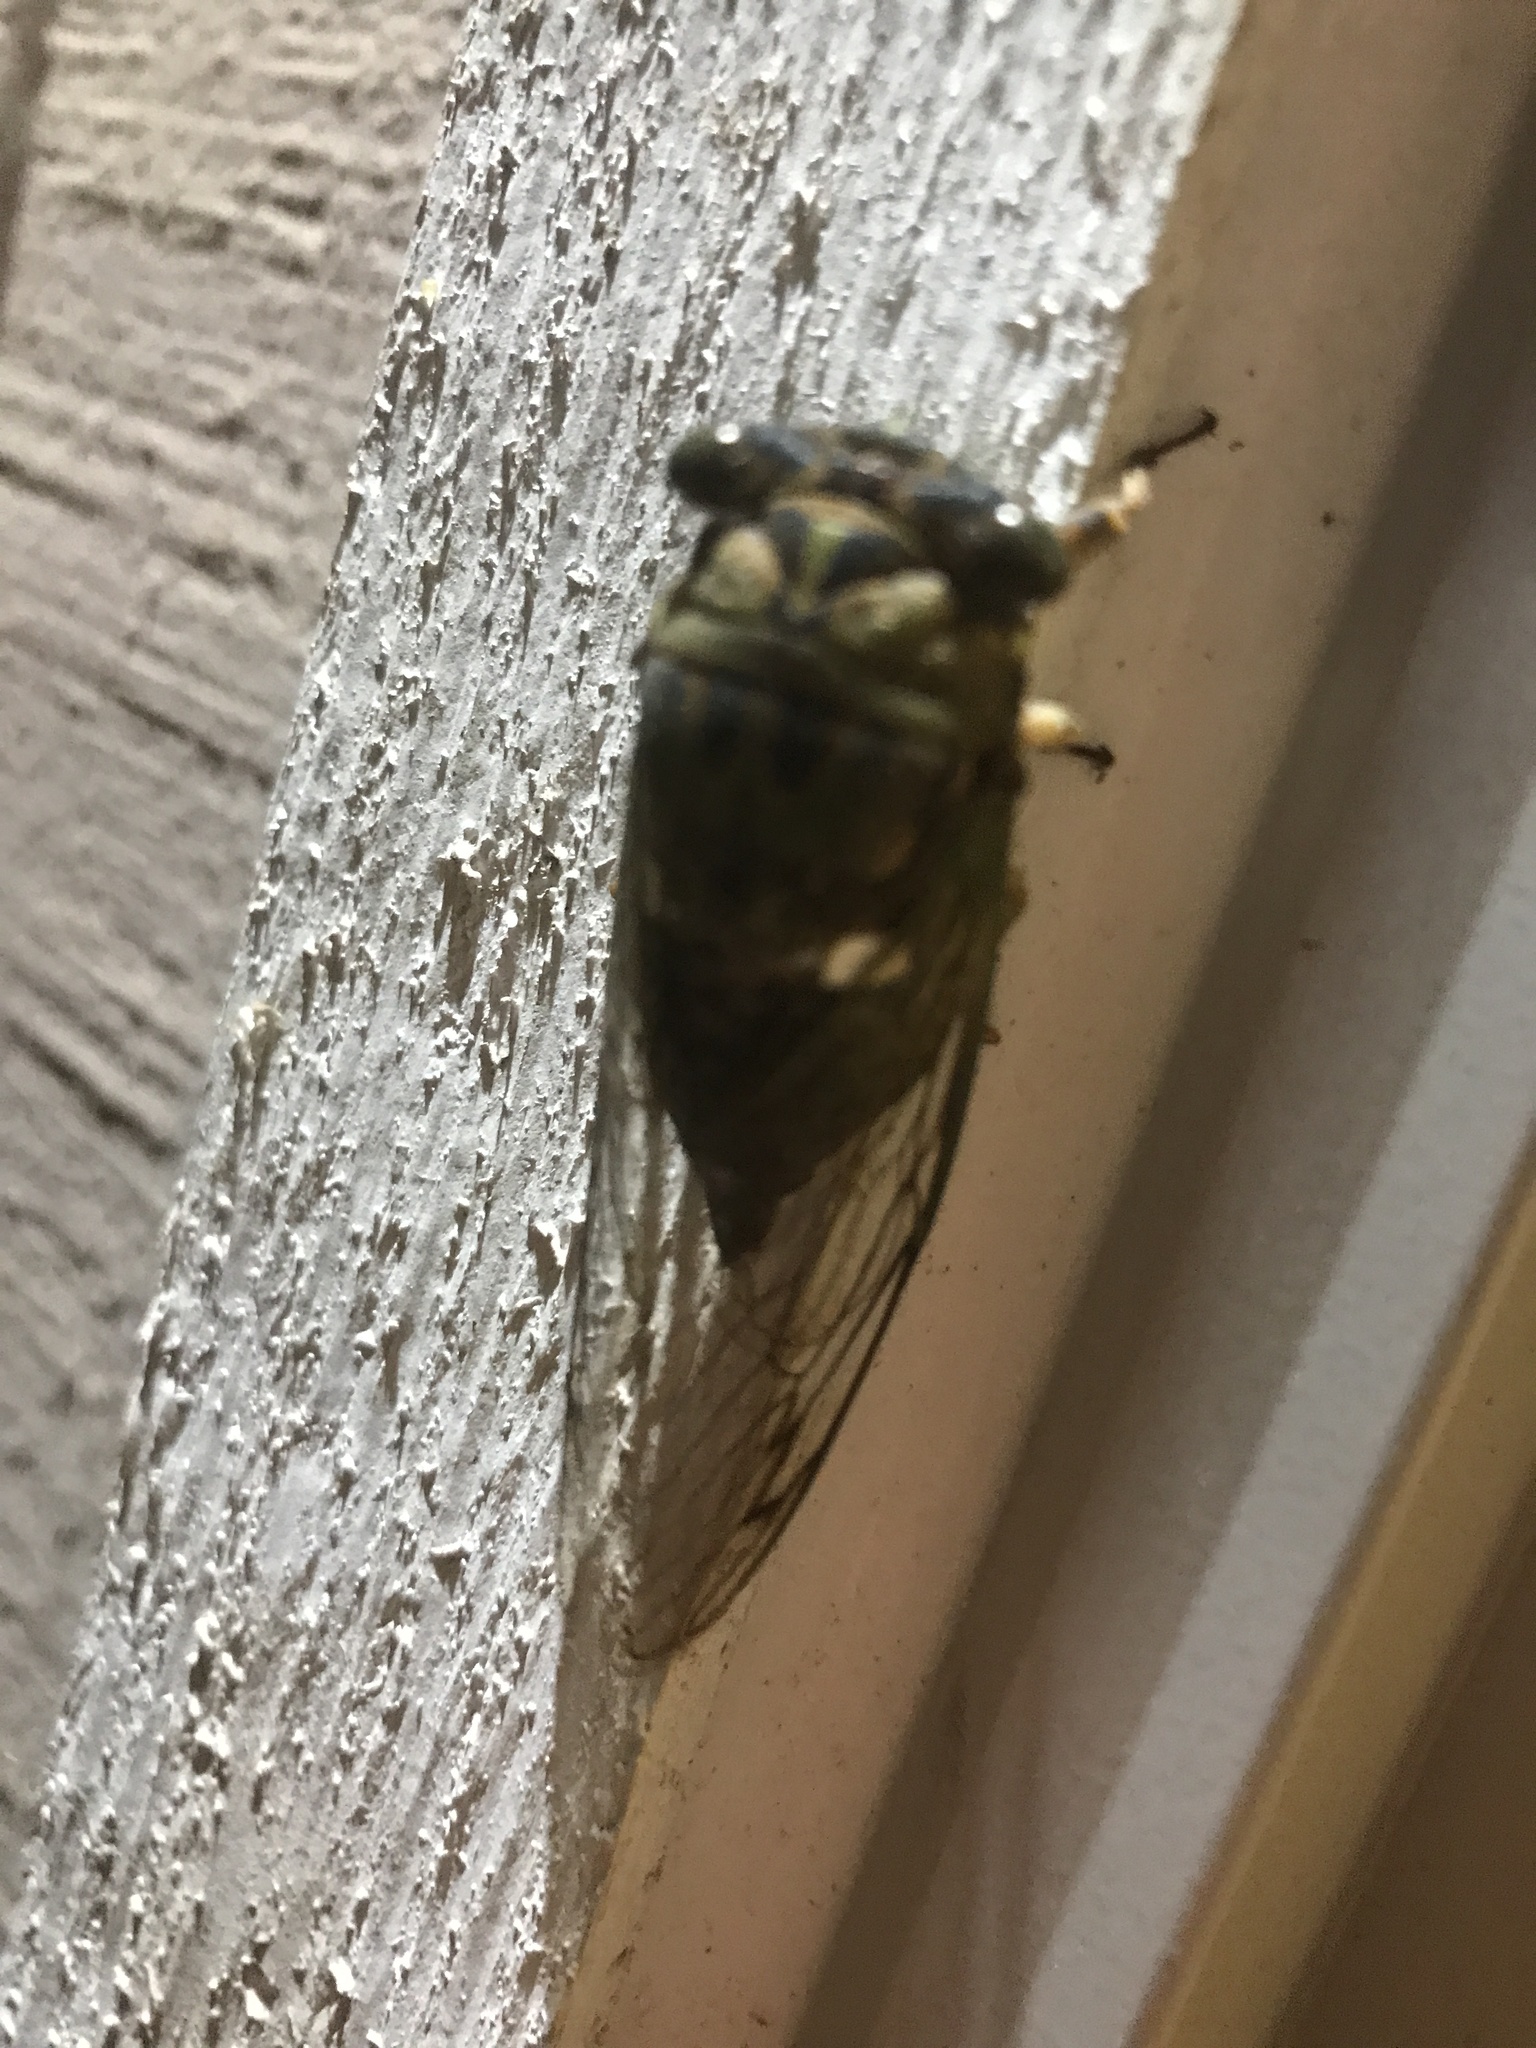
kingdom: Animalia
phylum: Arthropoda
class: Insecta
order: Hemiptera
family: Cicadidae
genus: Neotibicen
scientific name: Neotibicen pruinosus
